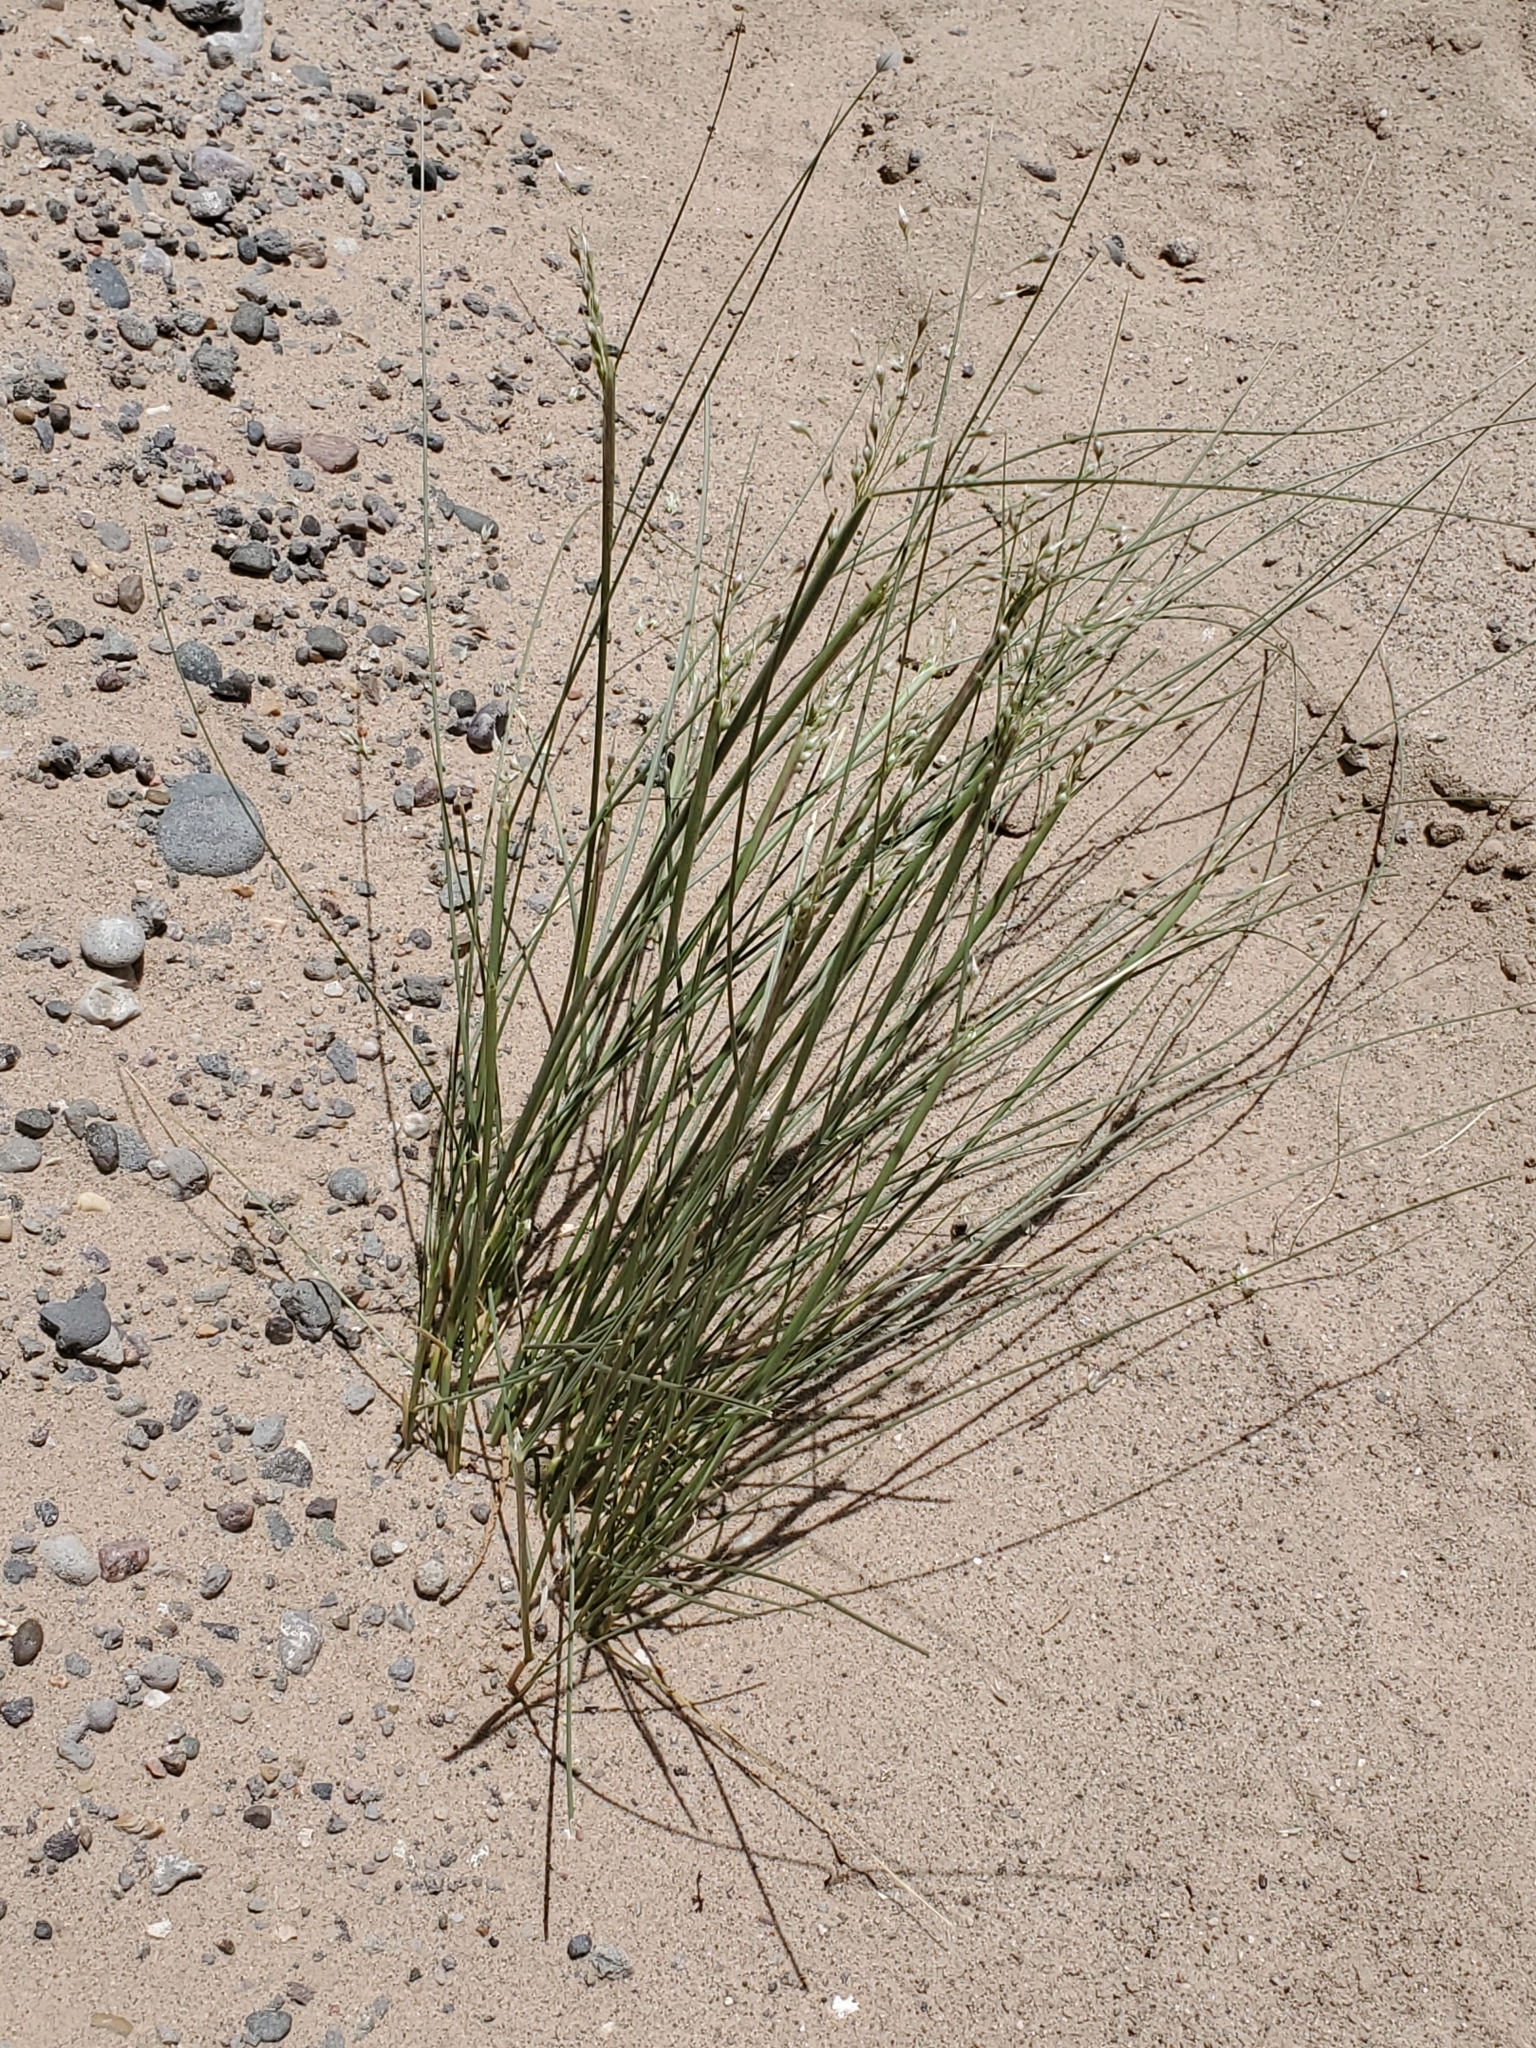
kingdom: Plantae
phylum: Tracheophyta
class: Liliopsida
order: Poales
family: Poaceae
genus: Eriocoma
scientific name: Eriocoma hymenoides
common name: Indian mountain ricegrass
